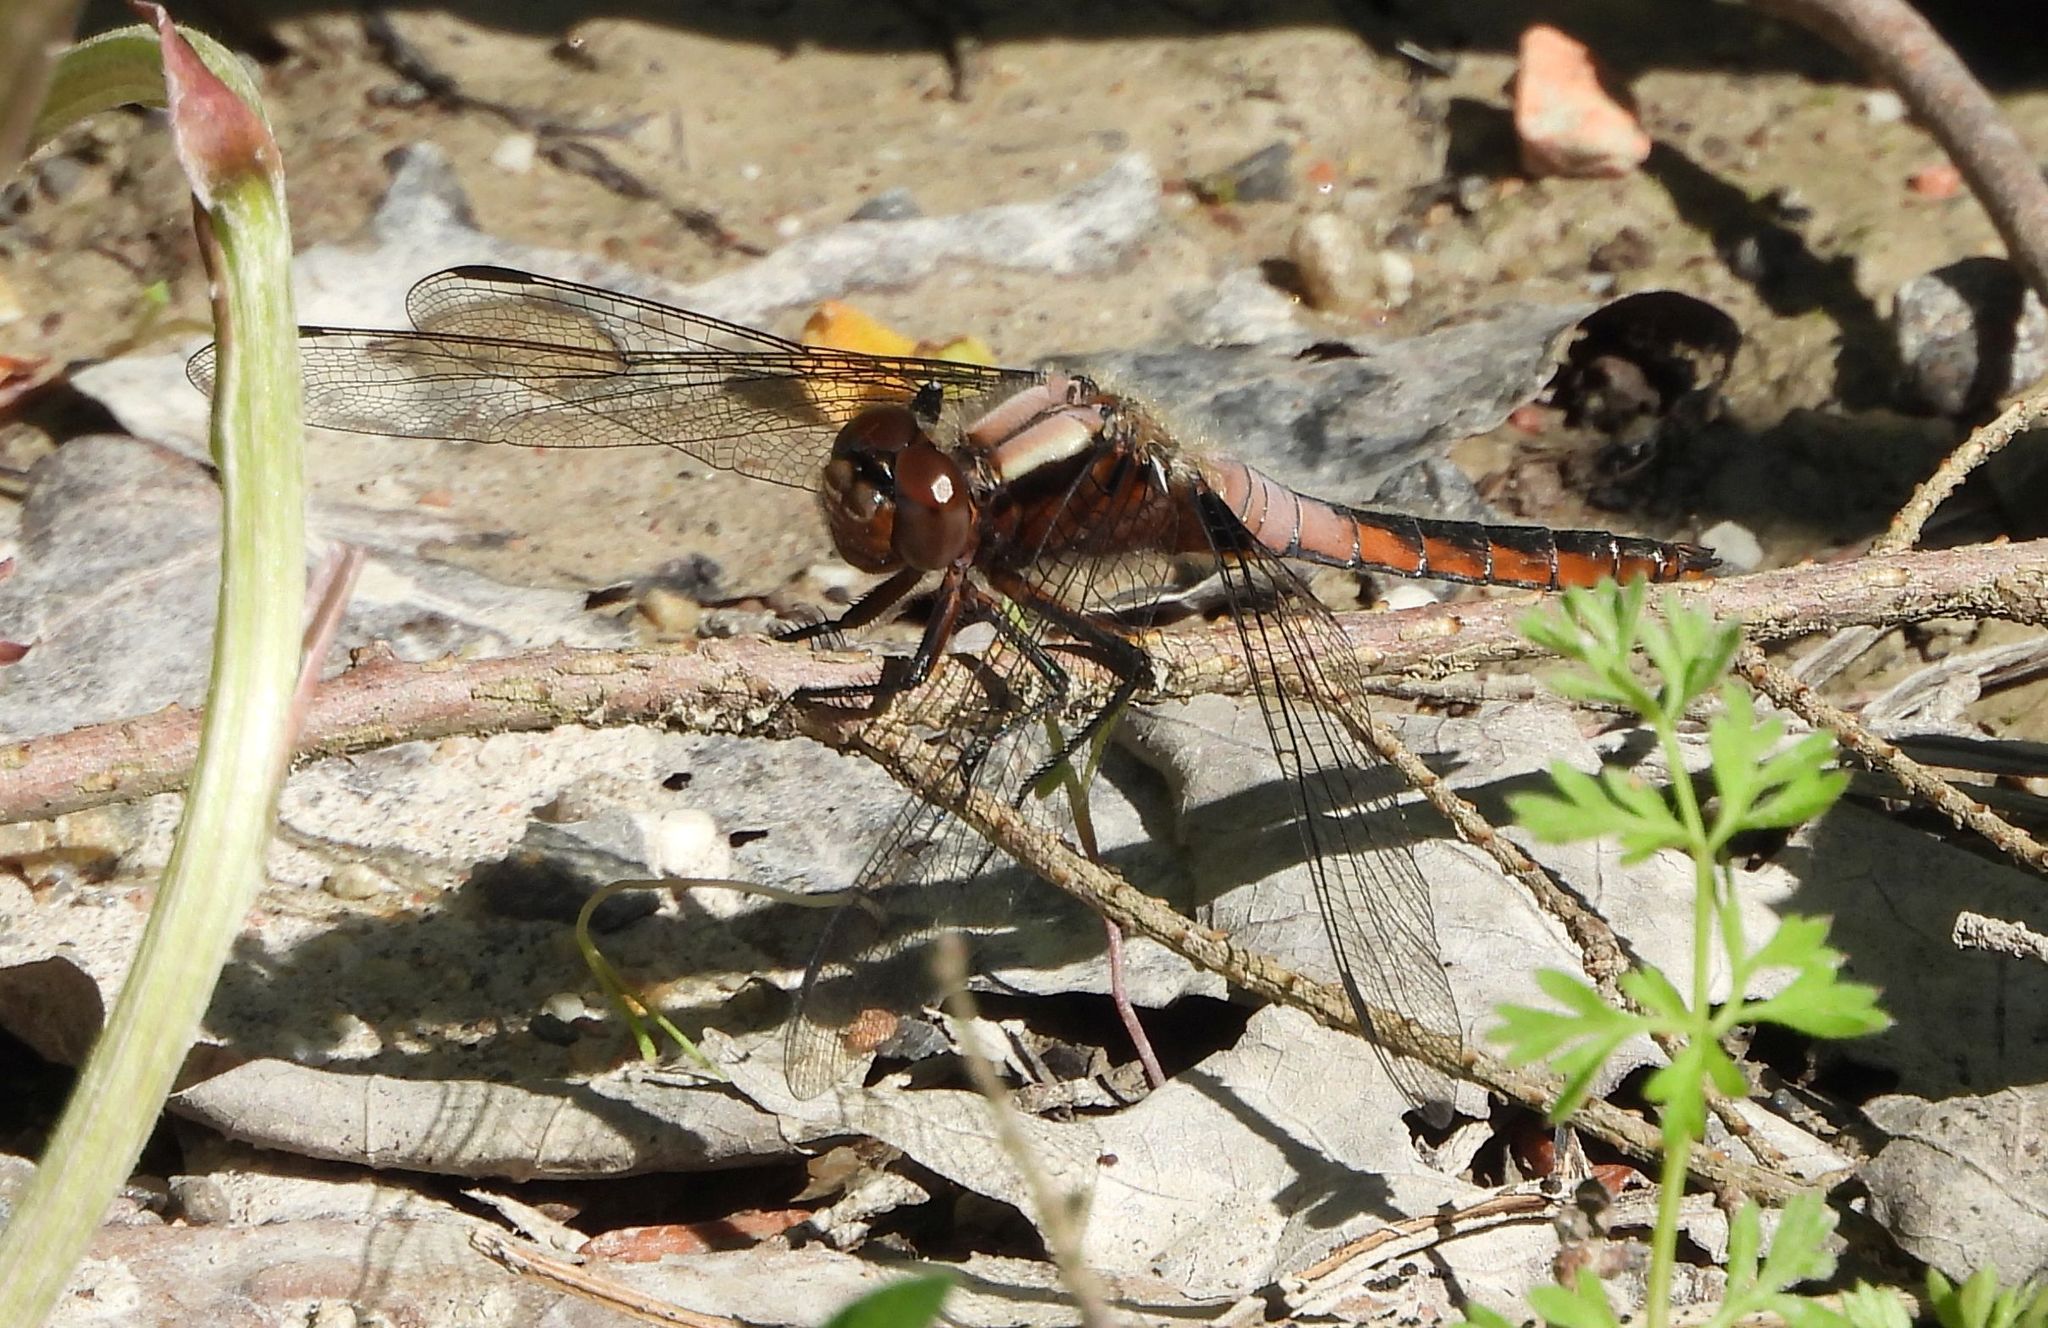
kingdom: Animalia
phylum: Arthropoda
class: Insecta
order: Odonata
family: Libellulidae
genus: Ladona
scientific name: Ladona julia
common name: Chalk-fronted corporal
